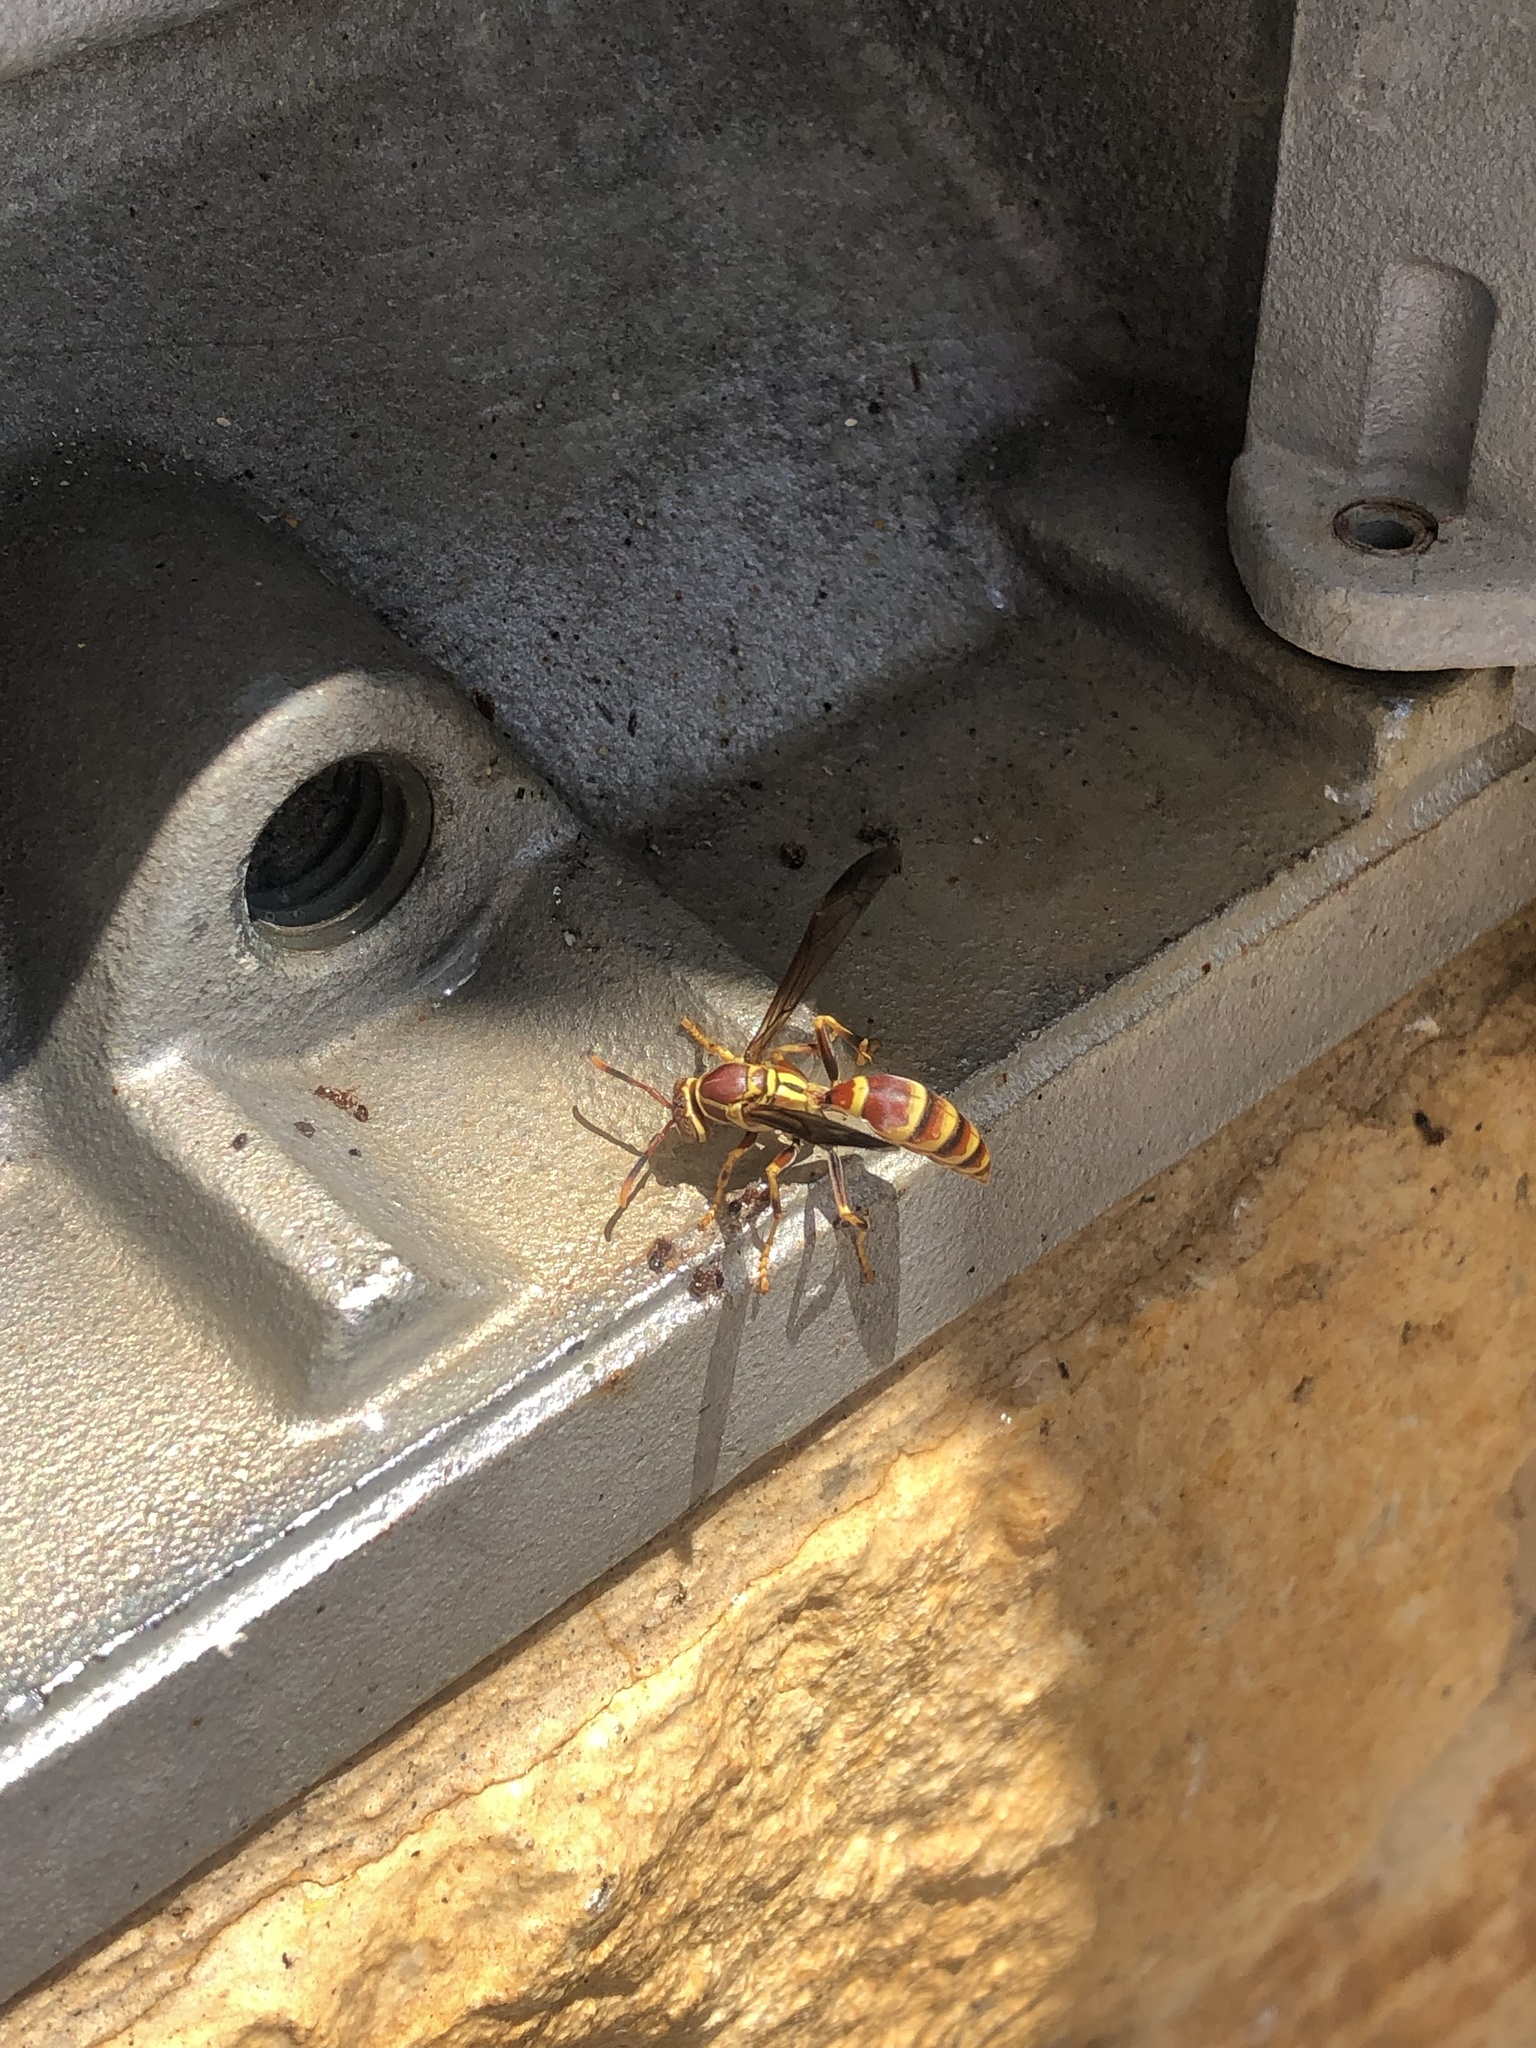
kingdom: Animalia
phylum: Arthropoda
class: Insecta
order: Hymenoptera
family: Eumenidae
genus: Polistes
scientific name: Polistes exclamans
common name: Paper wasp
